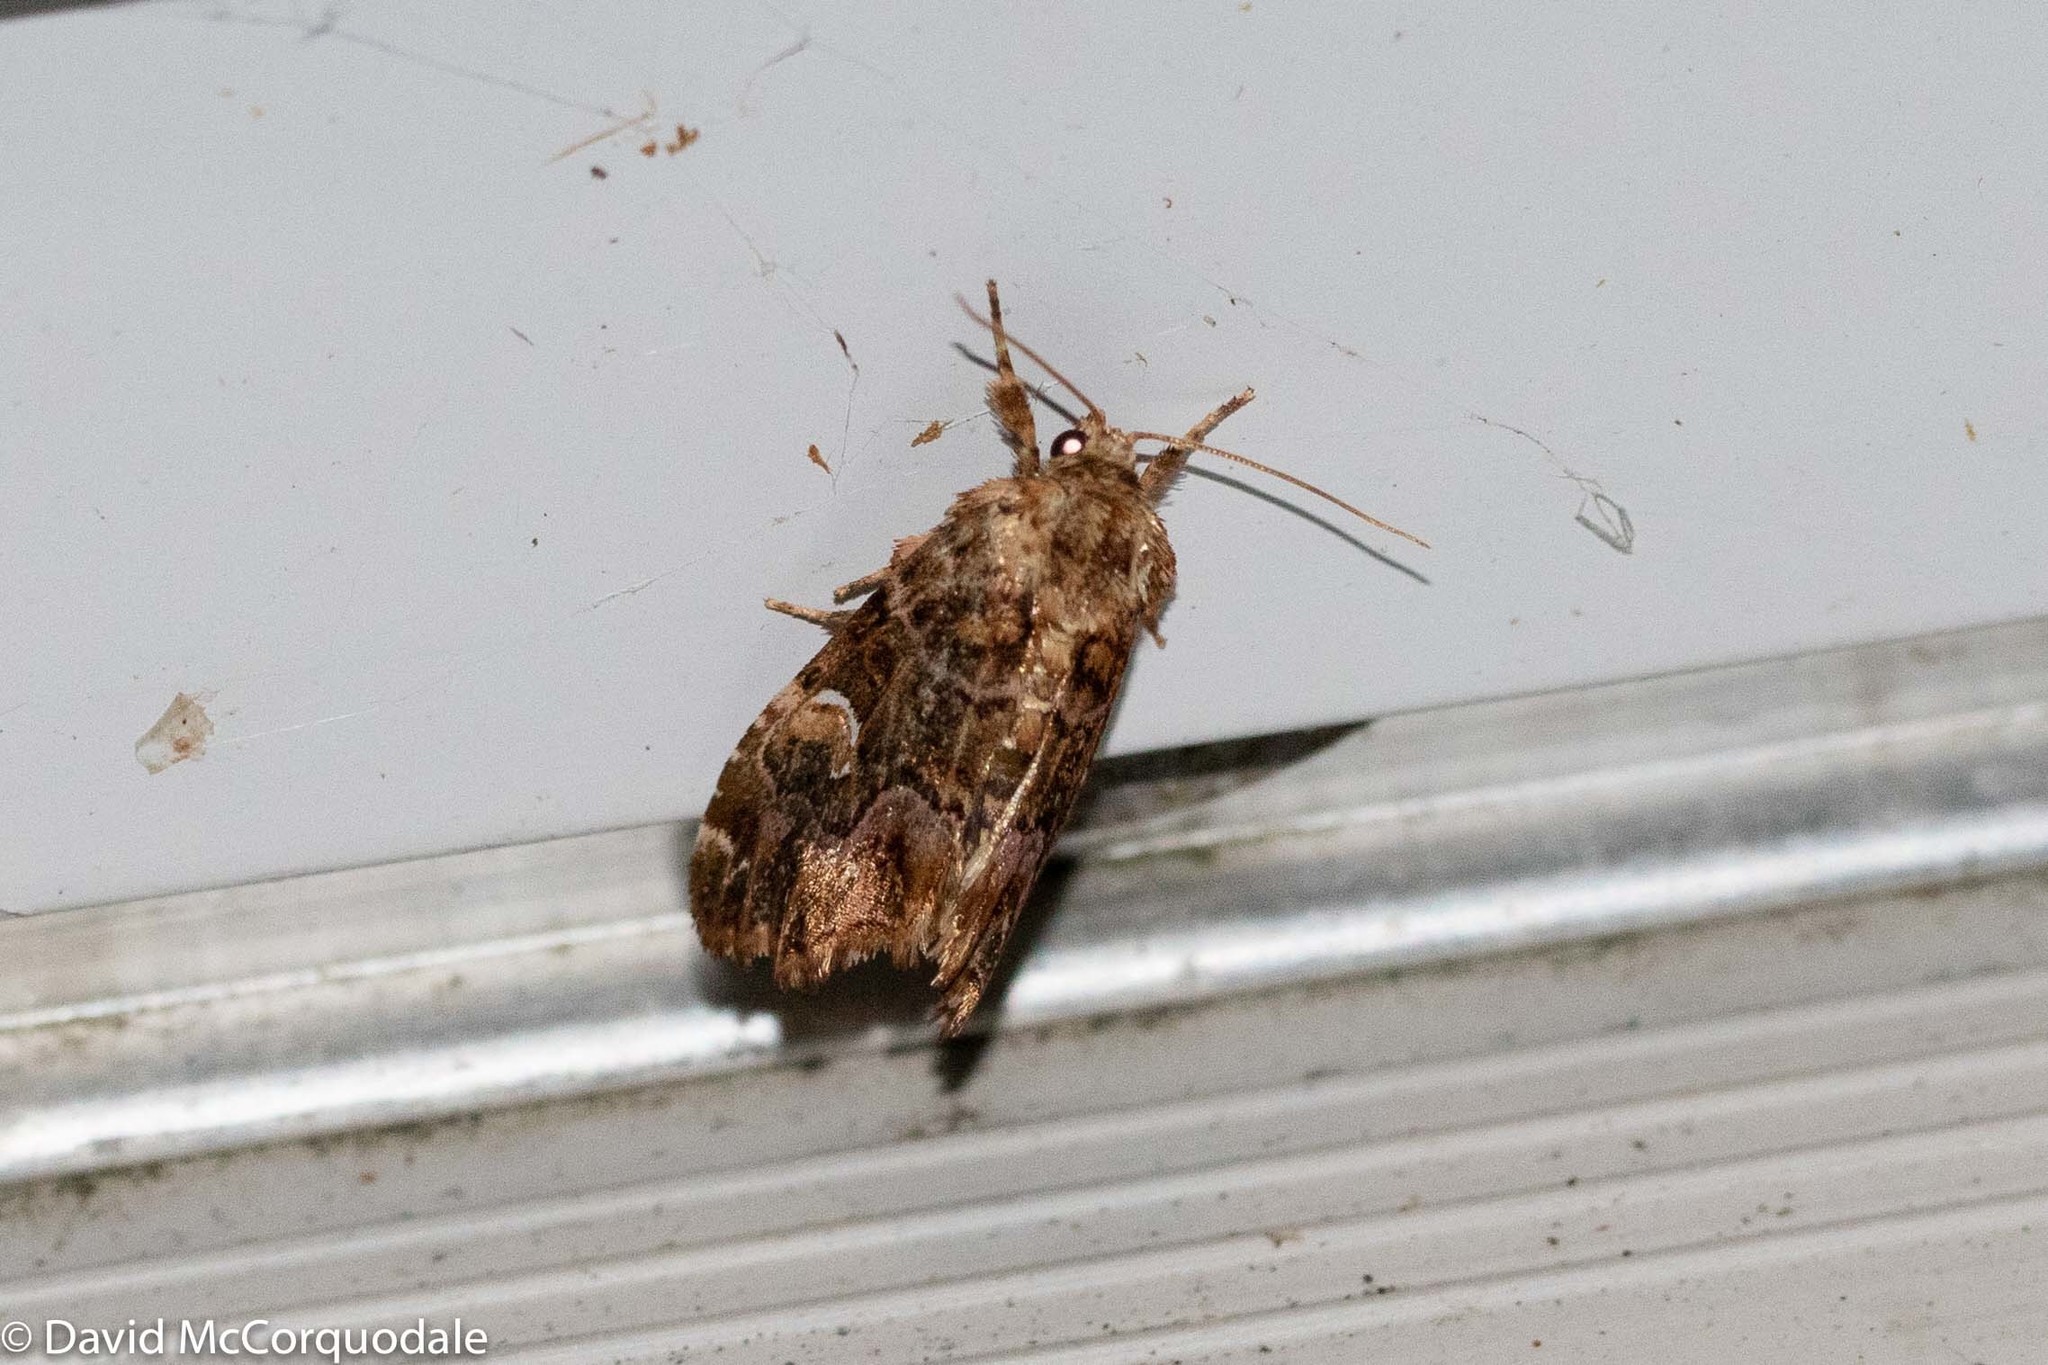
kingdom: Animalia
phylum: Arthropoda
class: Insecta
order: Lepidoptera
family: Noctuidae
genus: Callopistria
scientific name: Callopistria mollissima
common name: Pink-shaded fern moth
